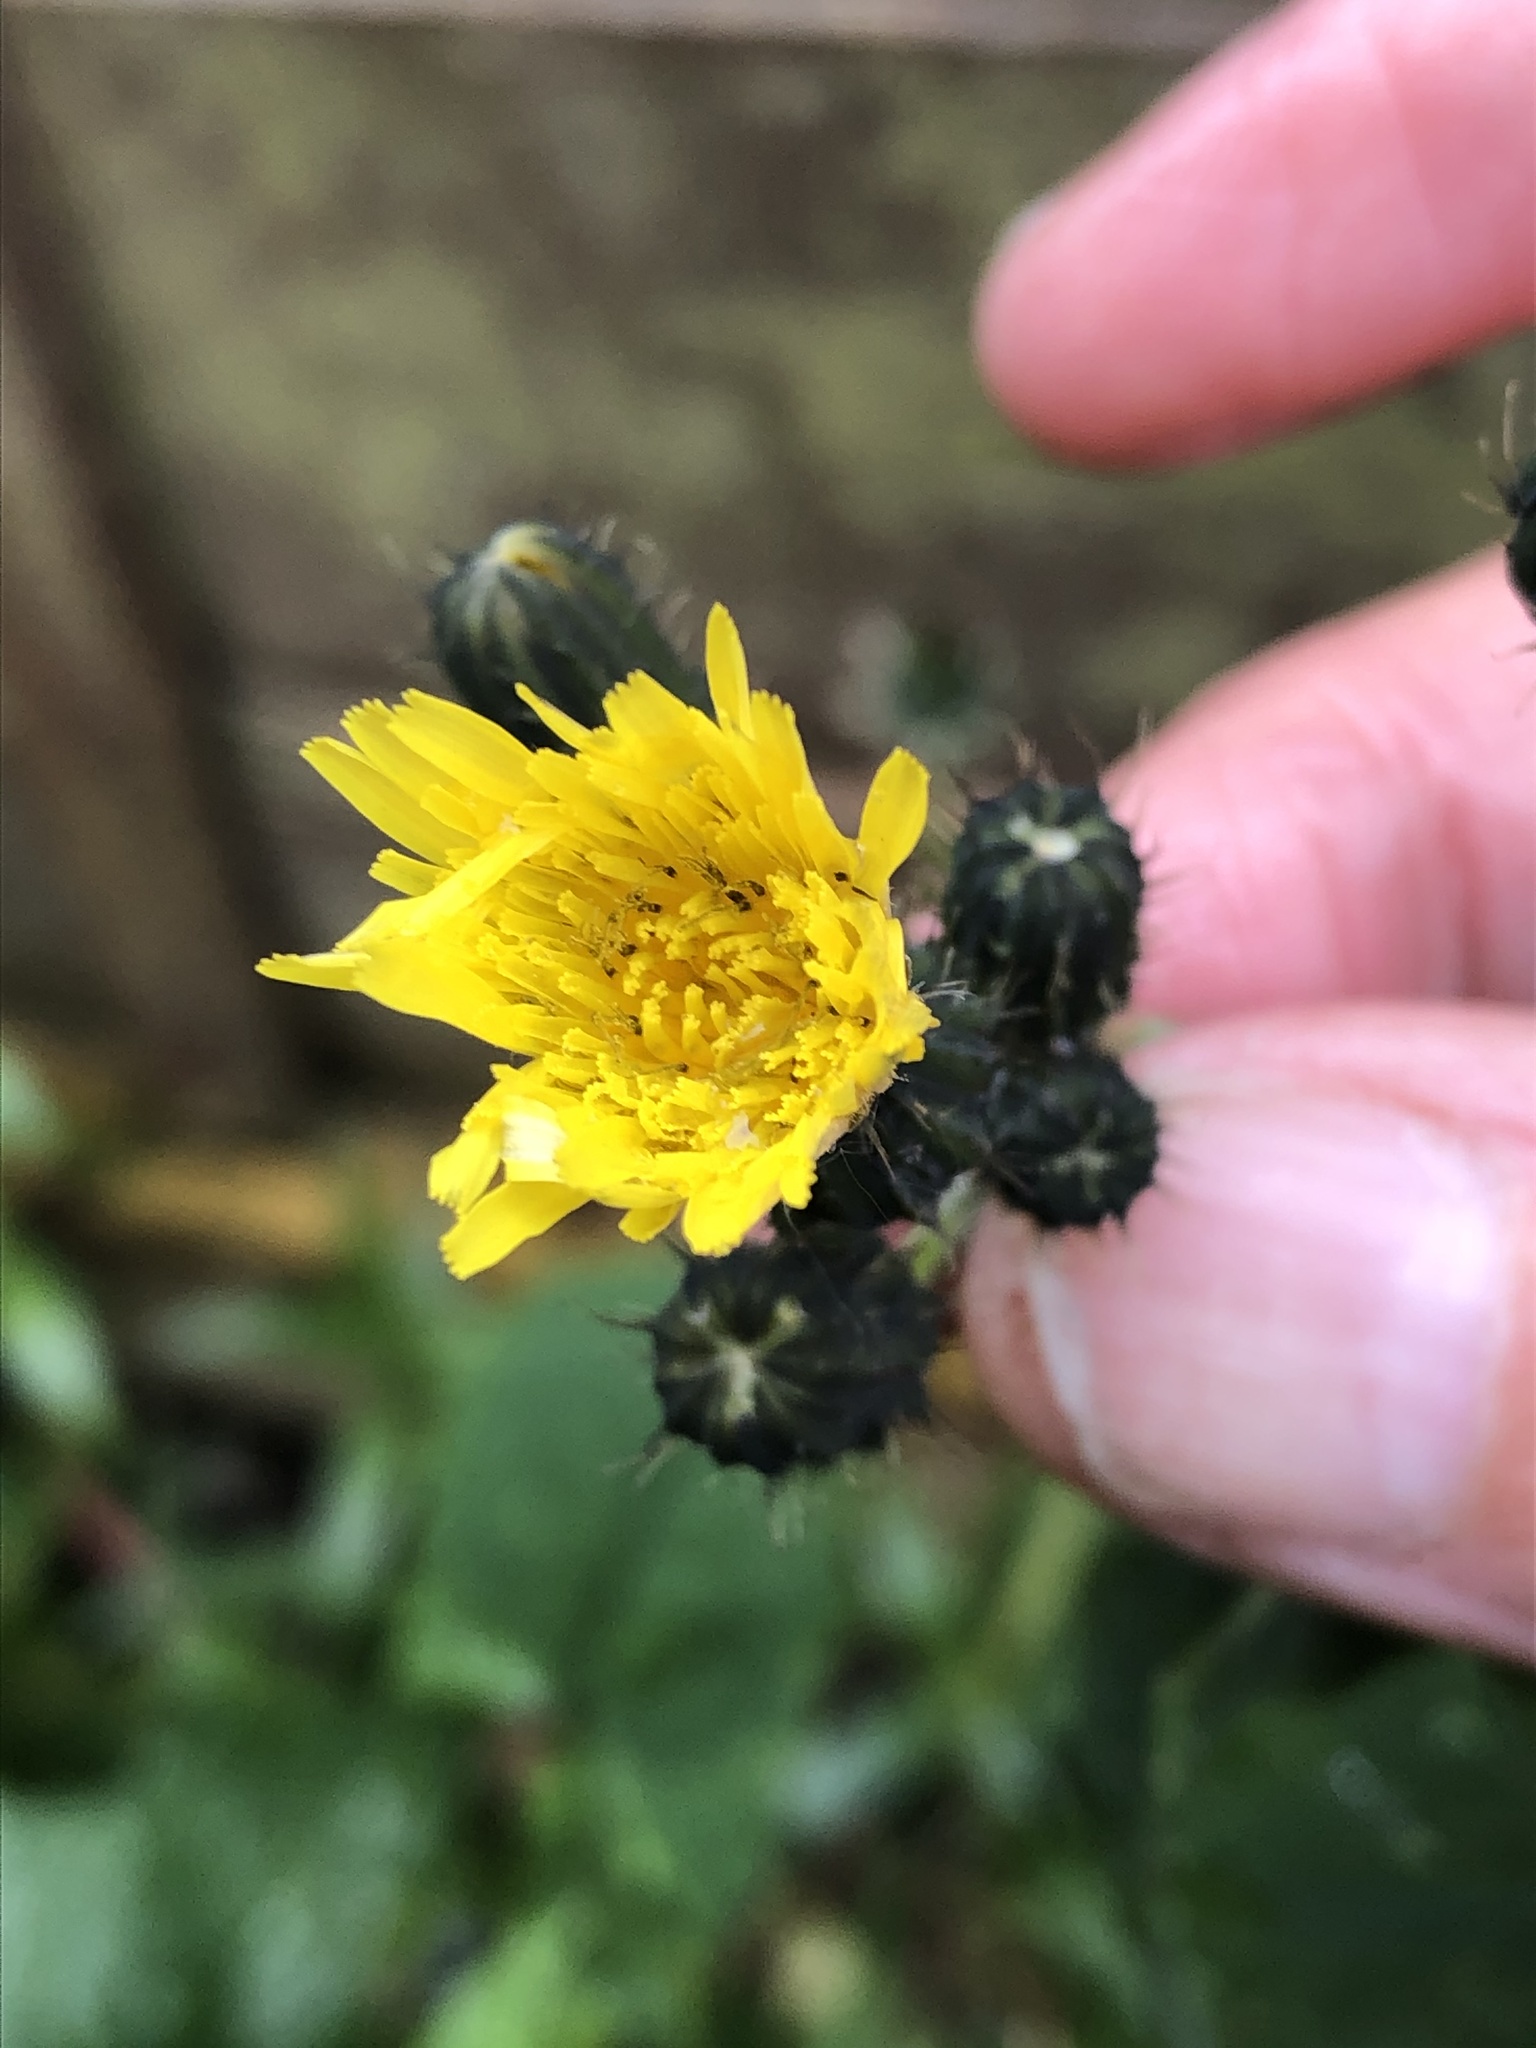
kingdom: Plantae
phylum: Tracheophyta
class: Magnoliopsida
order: Asterales
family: Asteraceae
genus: Sonchus
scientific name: Sonchus oleraceus
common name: Common sowthistle
